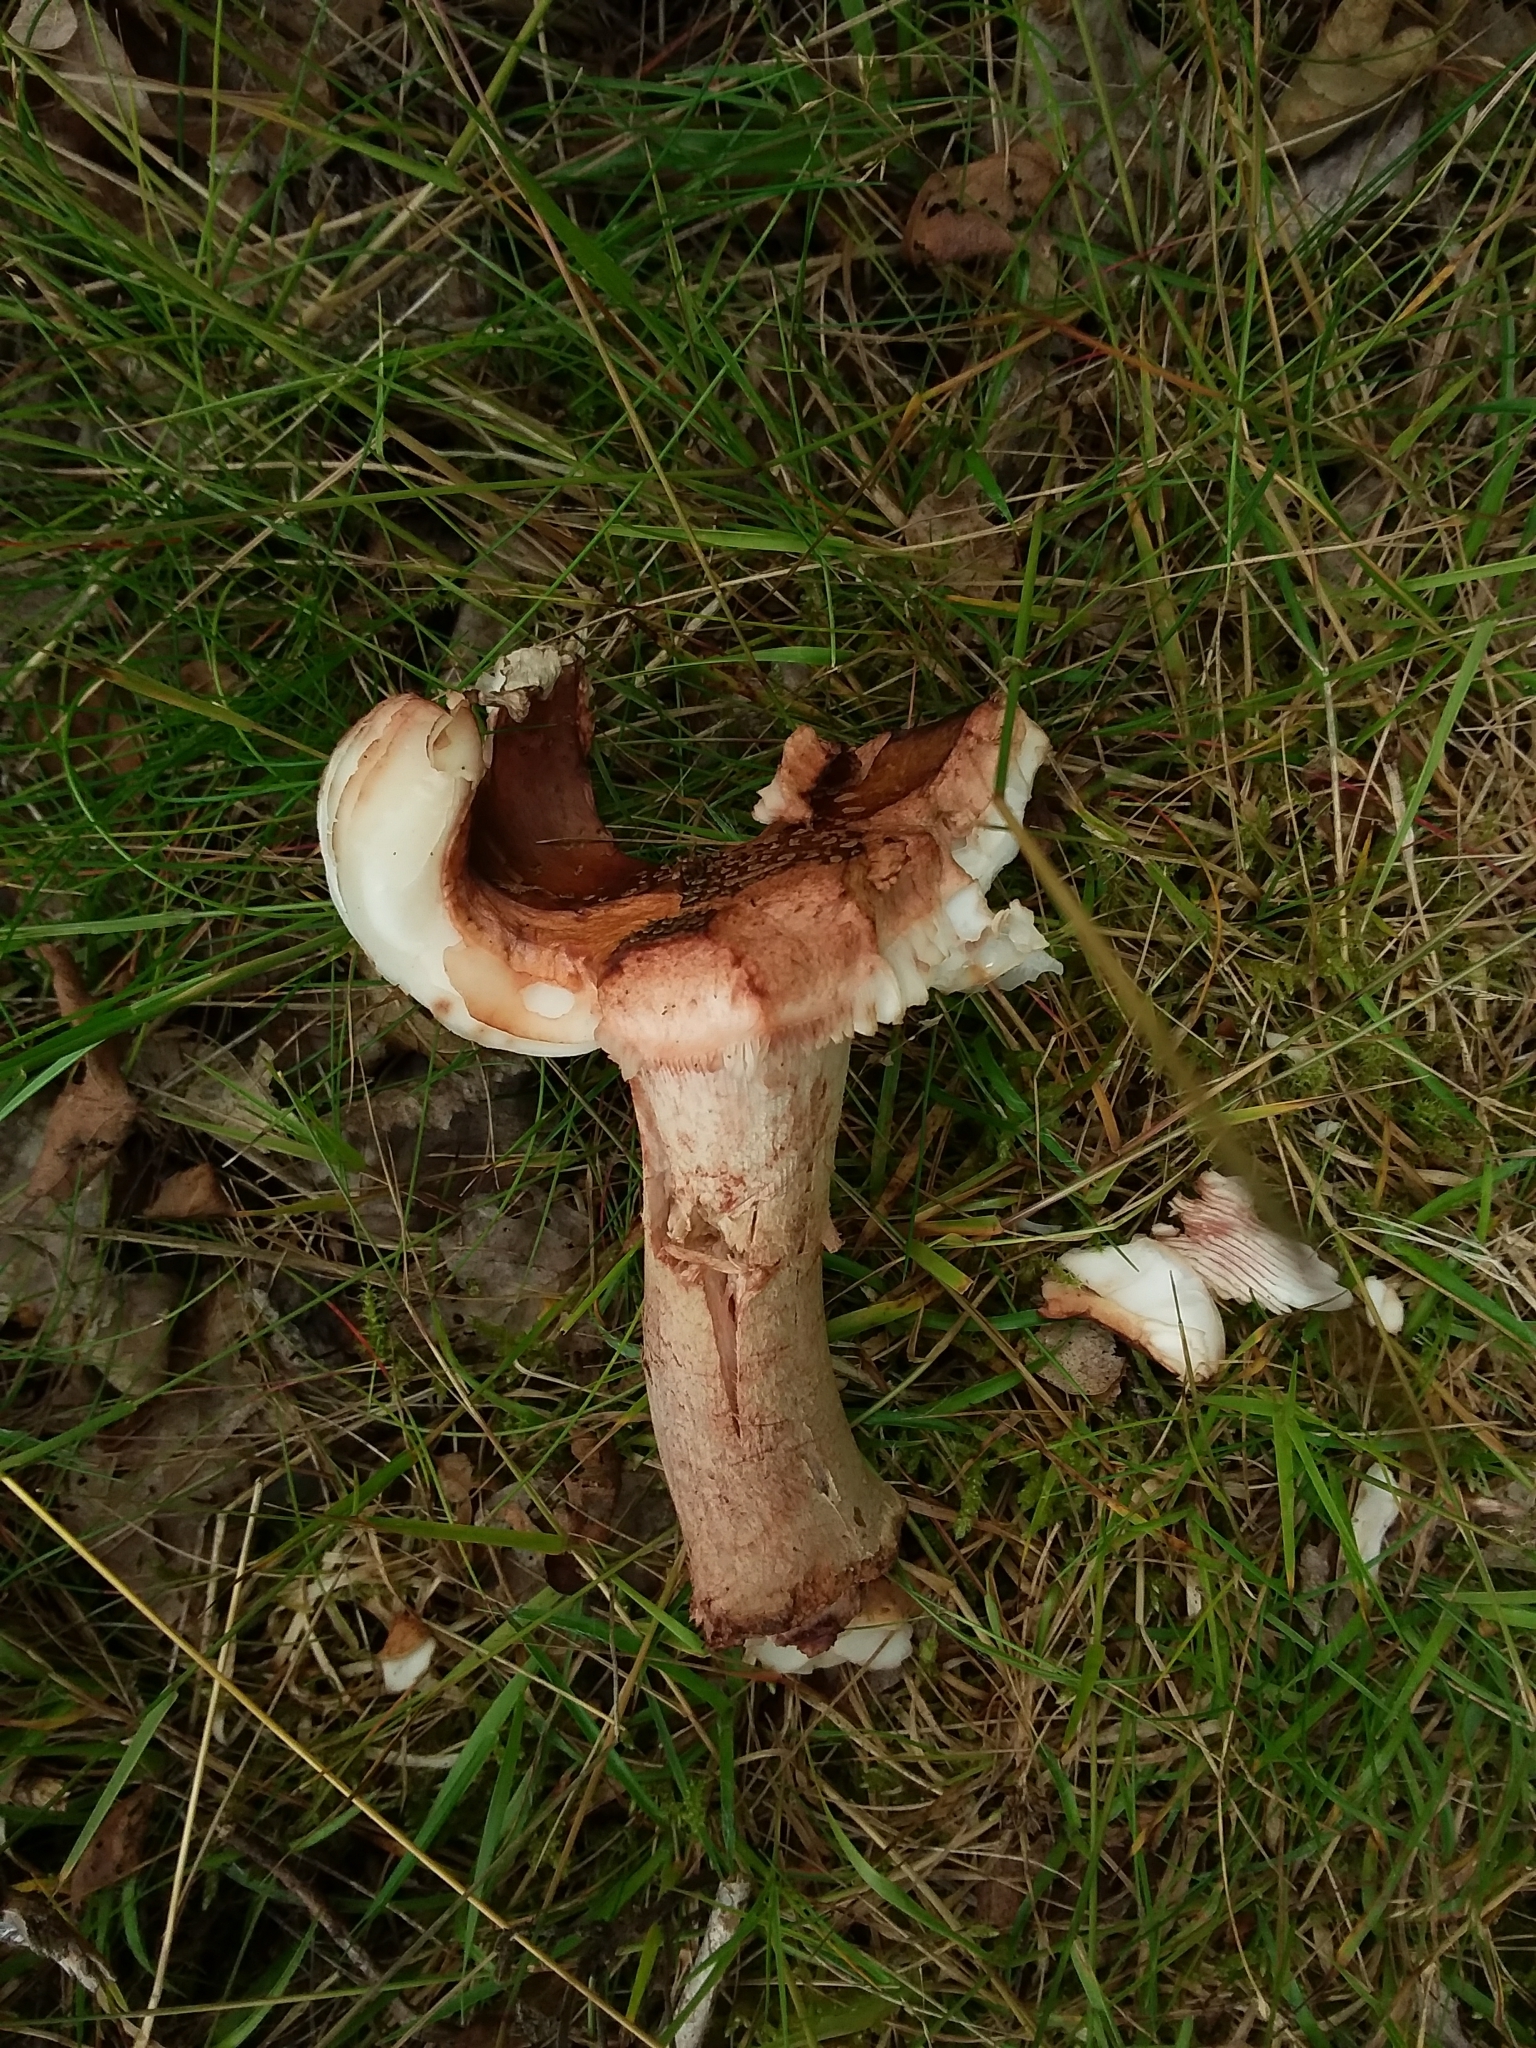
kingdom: Fungi
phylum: Basidiomycota
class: Agaricomycetes
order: Agaricales
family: Amanitaceae
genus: Amanita
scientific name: Amanita rubescens
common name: Blusher
